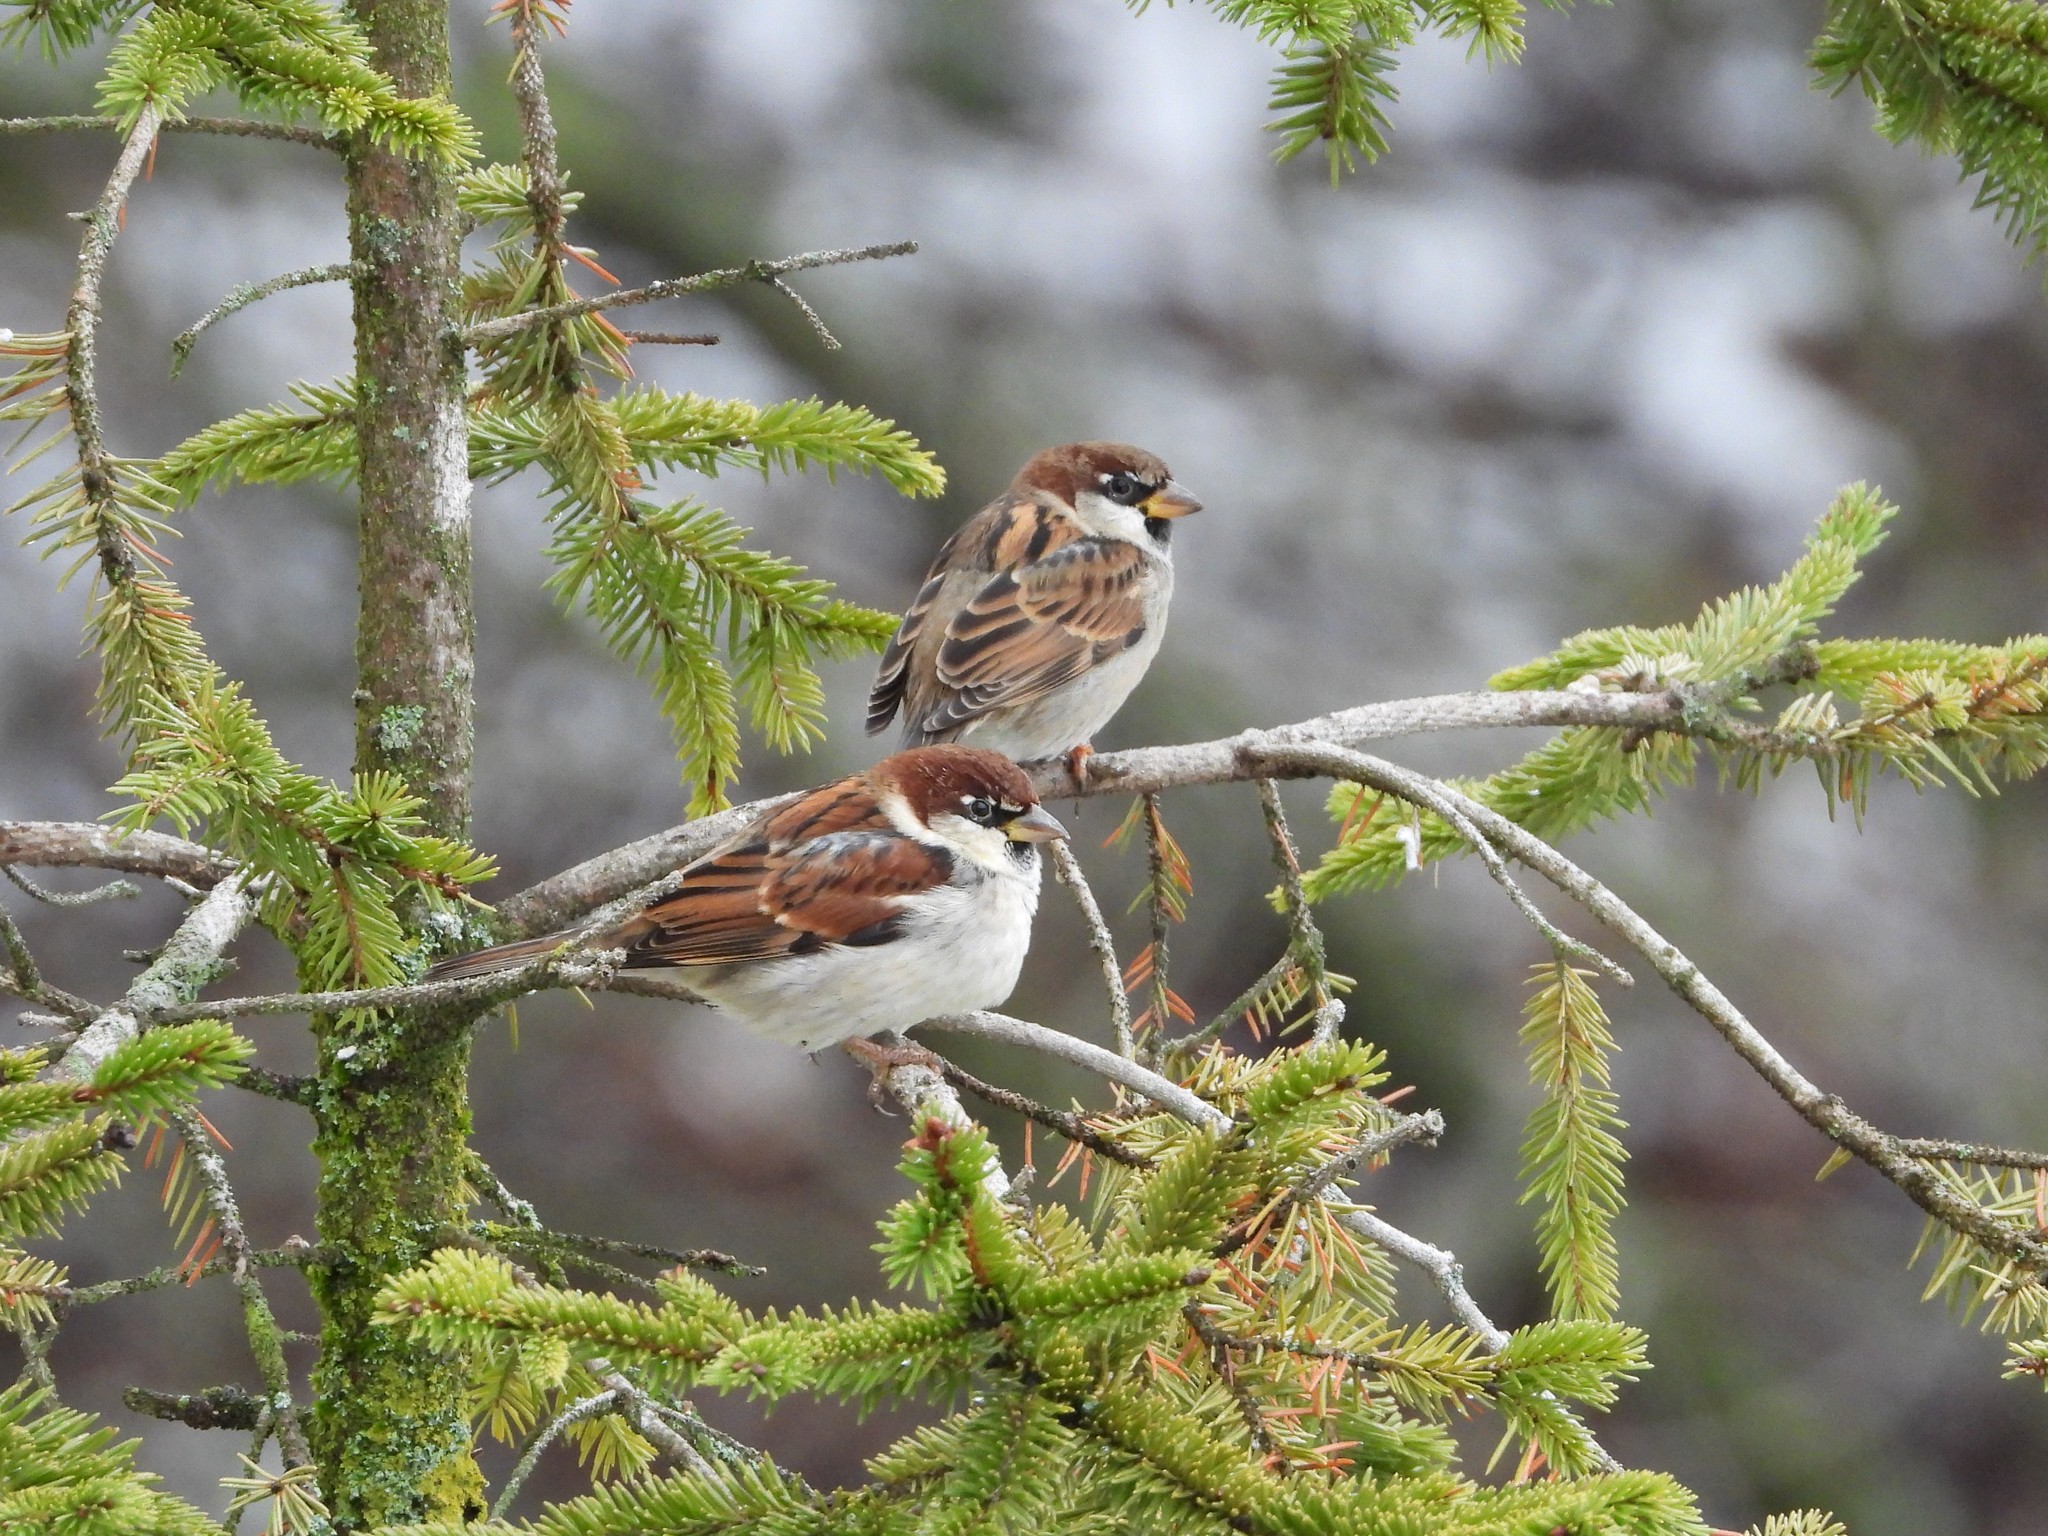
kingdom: Animalia
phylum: Chordata
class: Aves
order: Passeriformes
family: Passeridae
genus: Passer
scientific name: Passer italiae
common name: Italian sparrow
